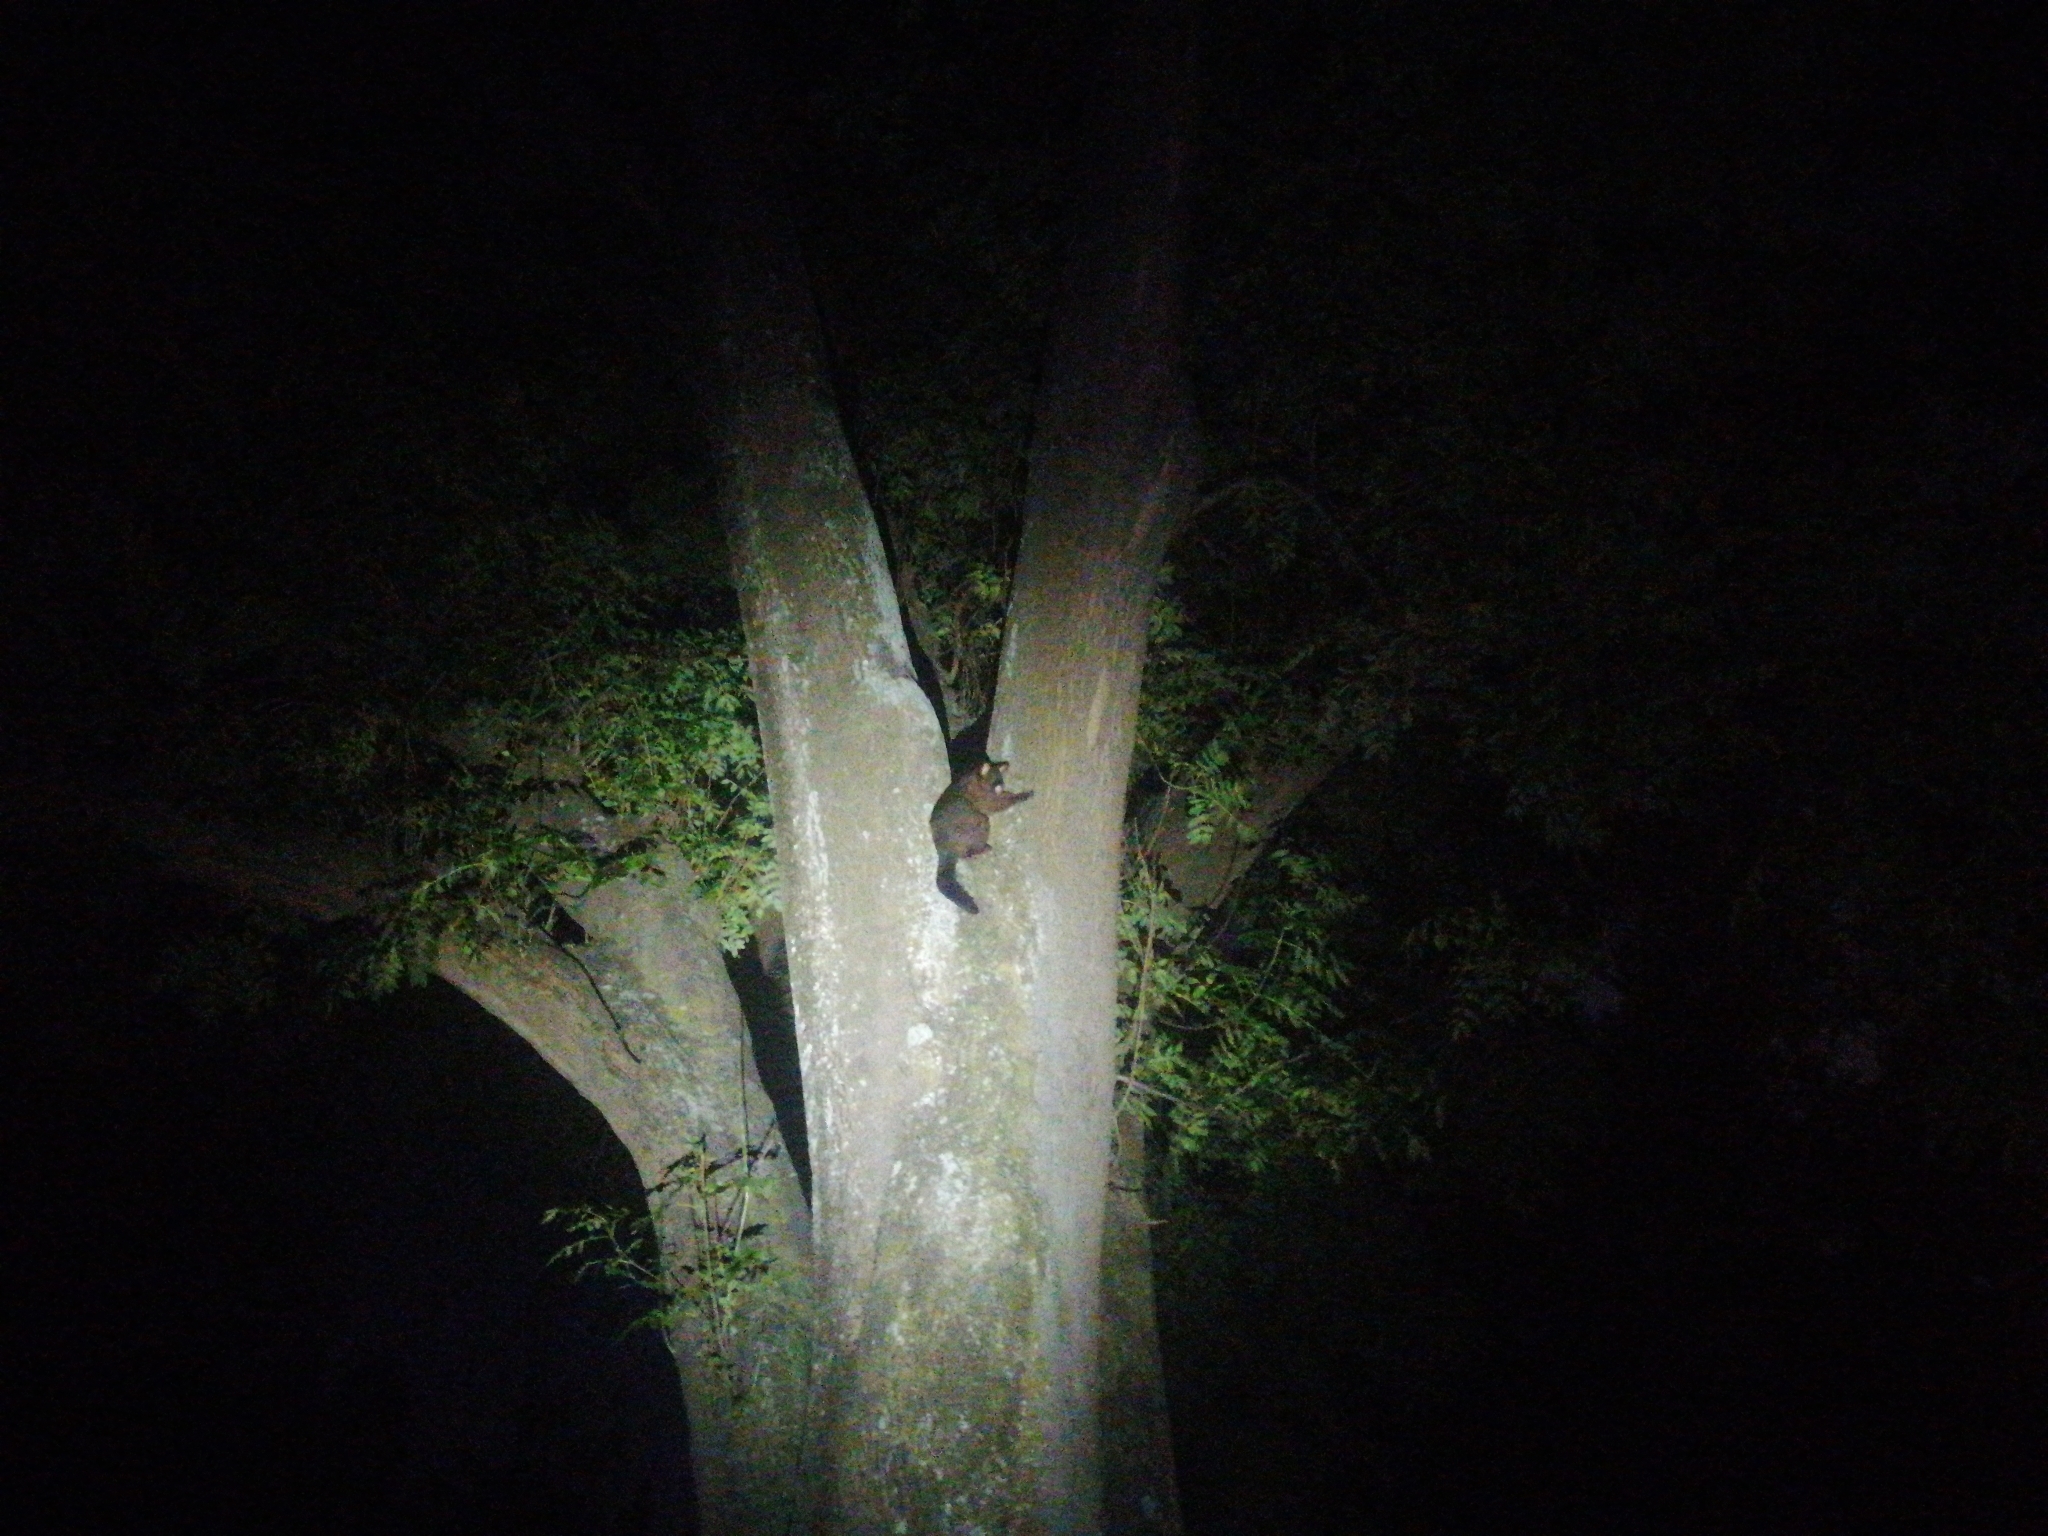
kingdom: Animalia
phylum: Chordata
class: Mammalia
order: Diprotodontia
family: Phalangeridae
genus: Trichosurus
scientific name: Trichosurus vulpecula
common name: Common brushtail
